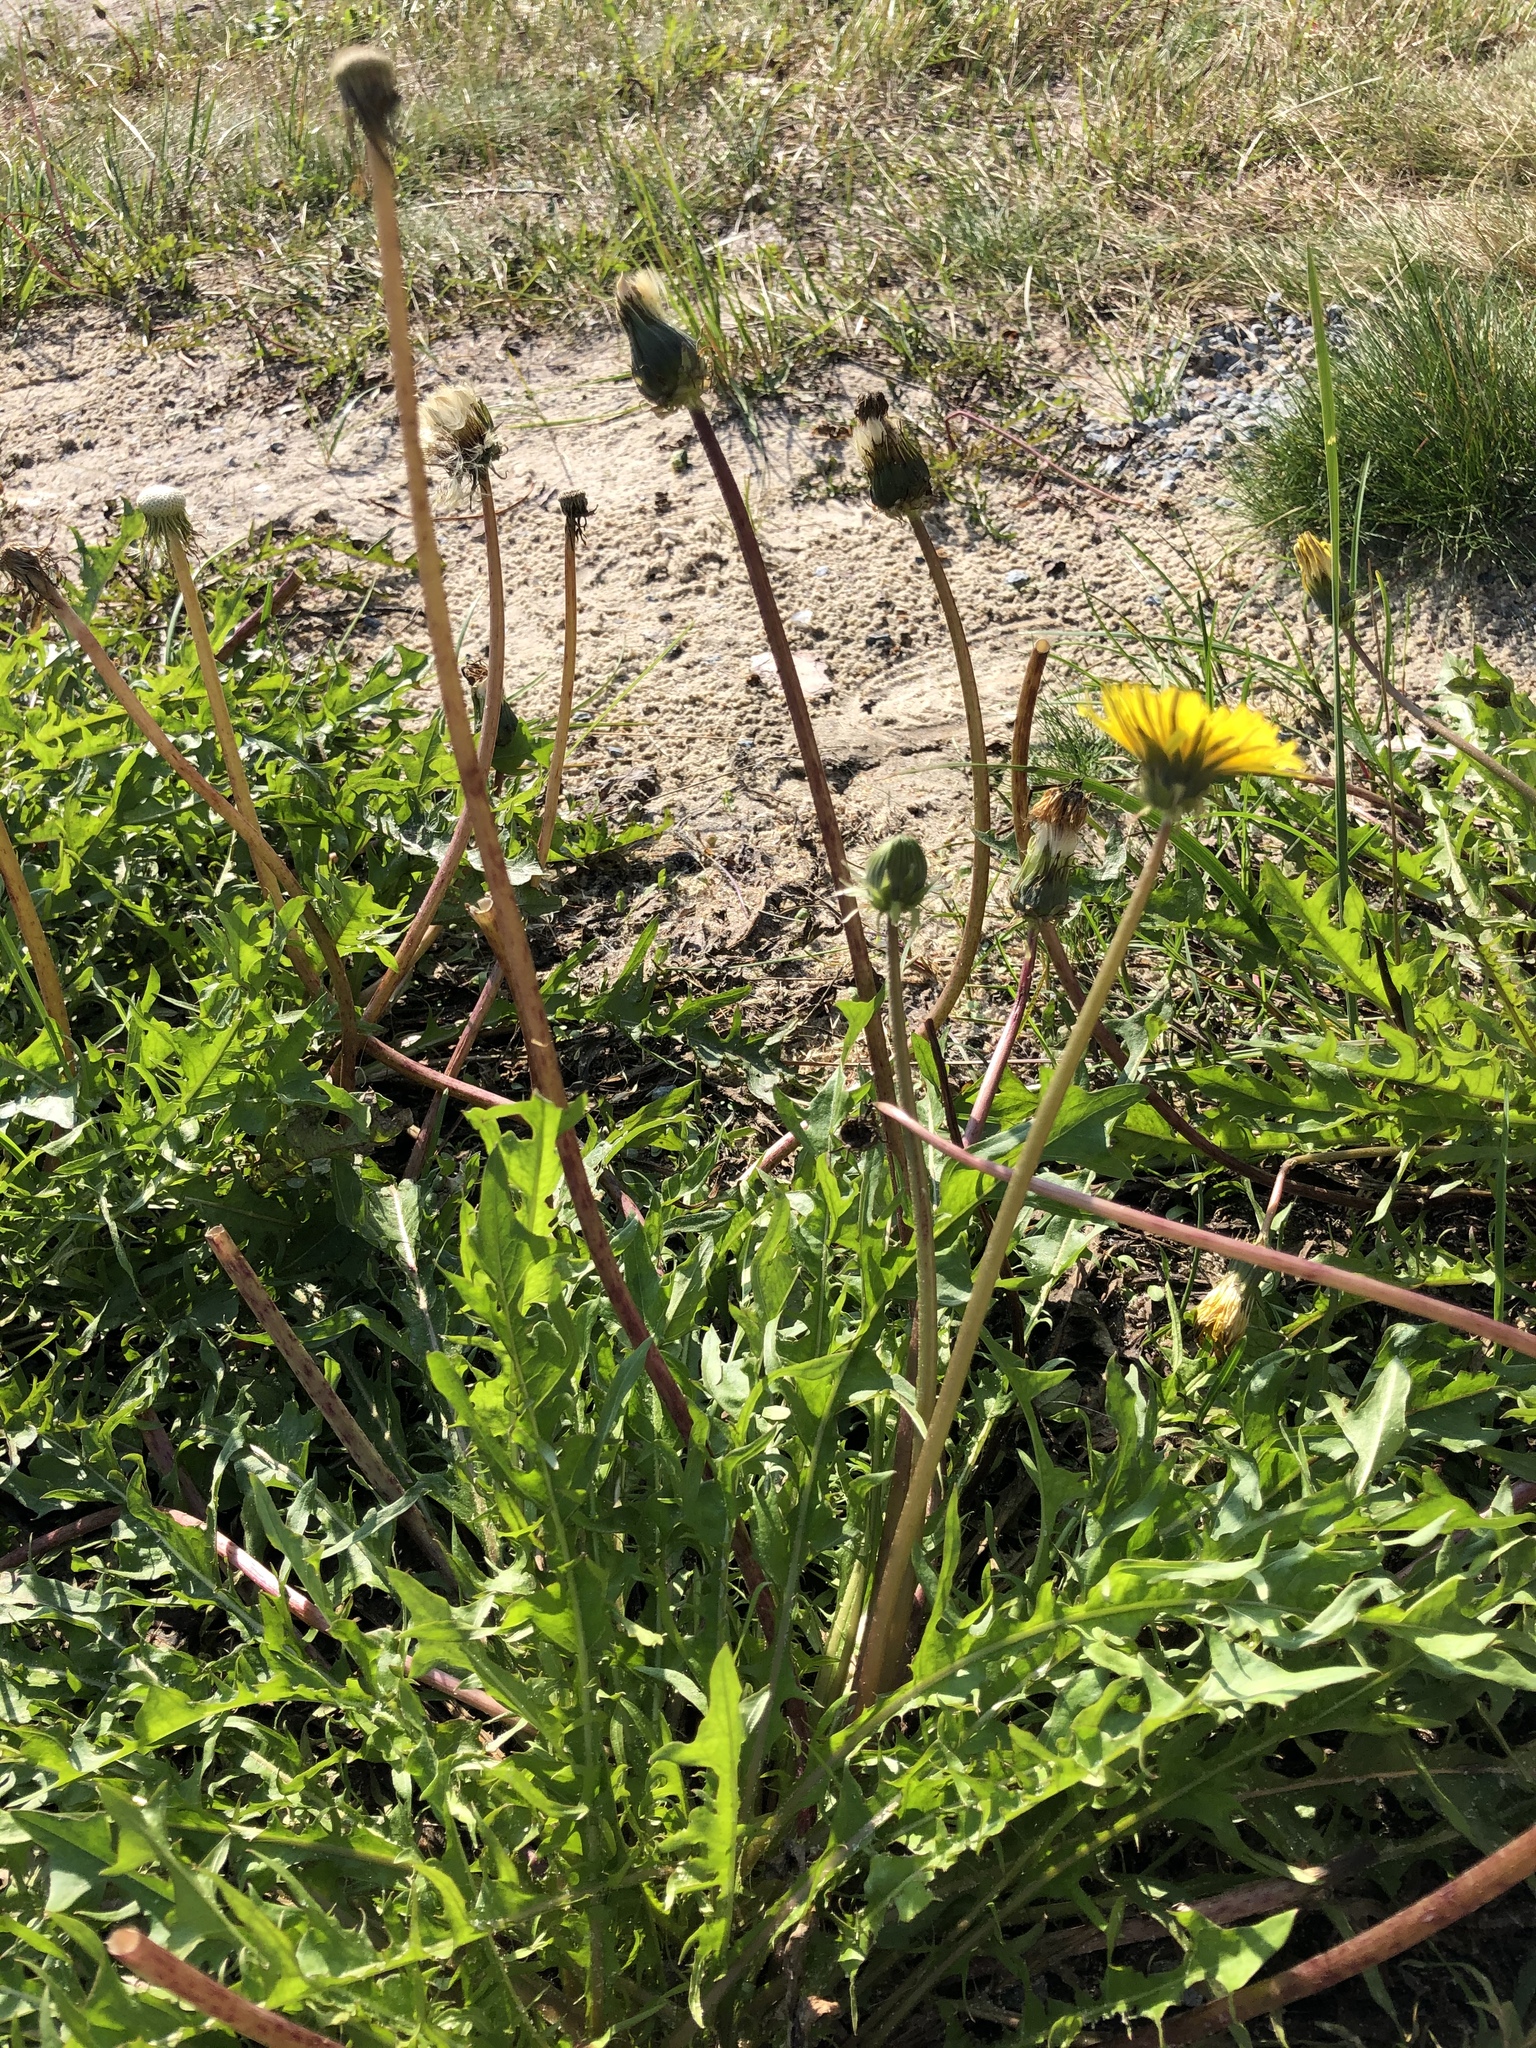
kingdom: Plantae
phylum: Tracheophyta
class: Magnoliopsida
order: Asterales
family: Asteraceae
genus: Taraxacum
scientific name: Taraxacum officinale
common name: Common dandelion
